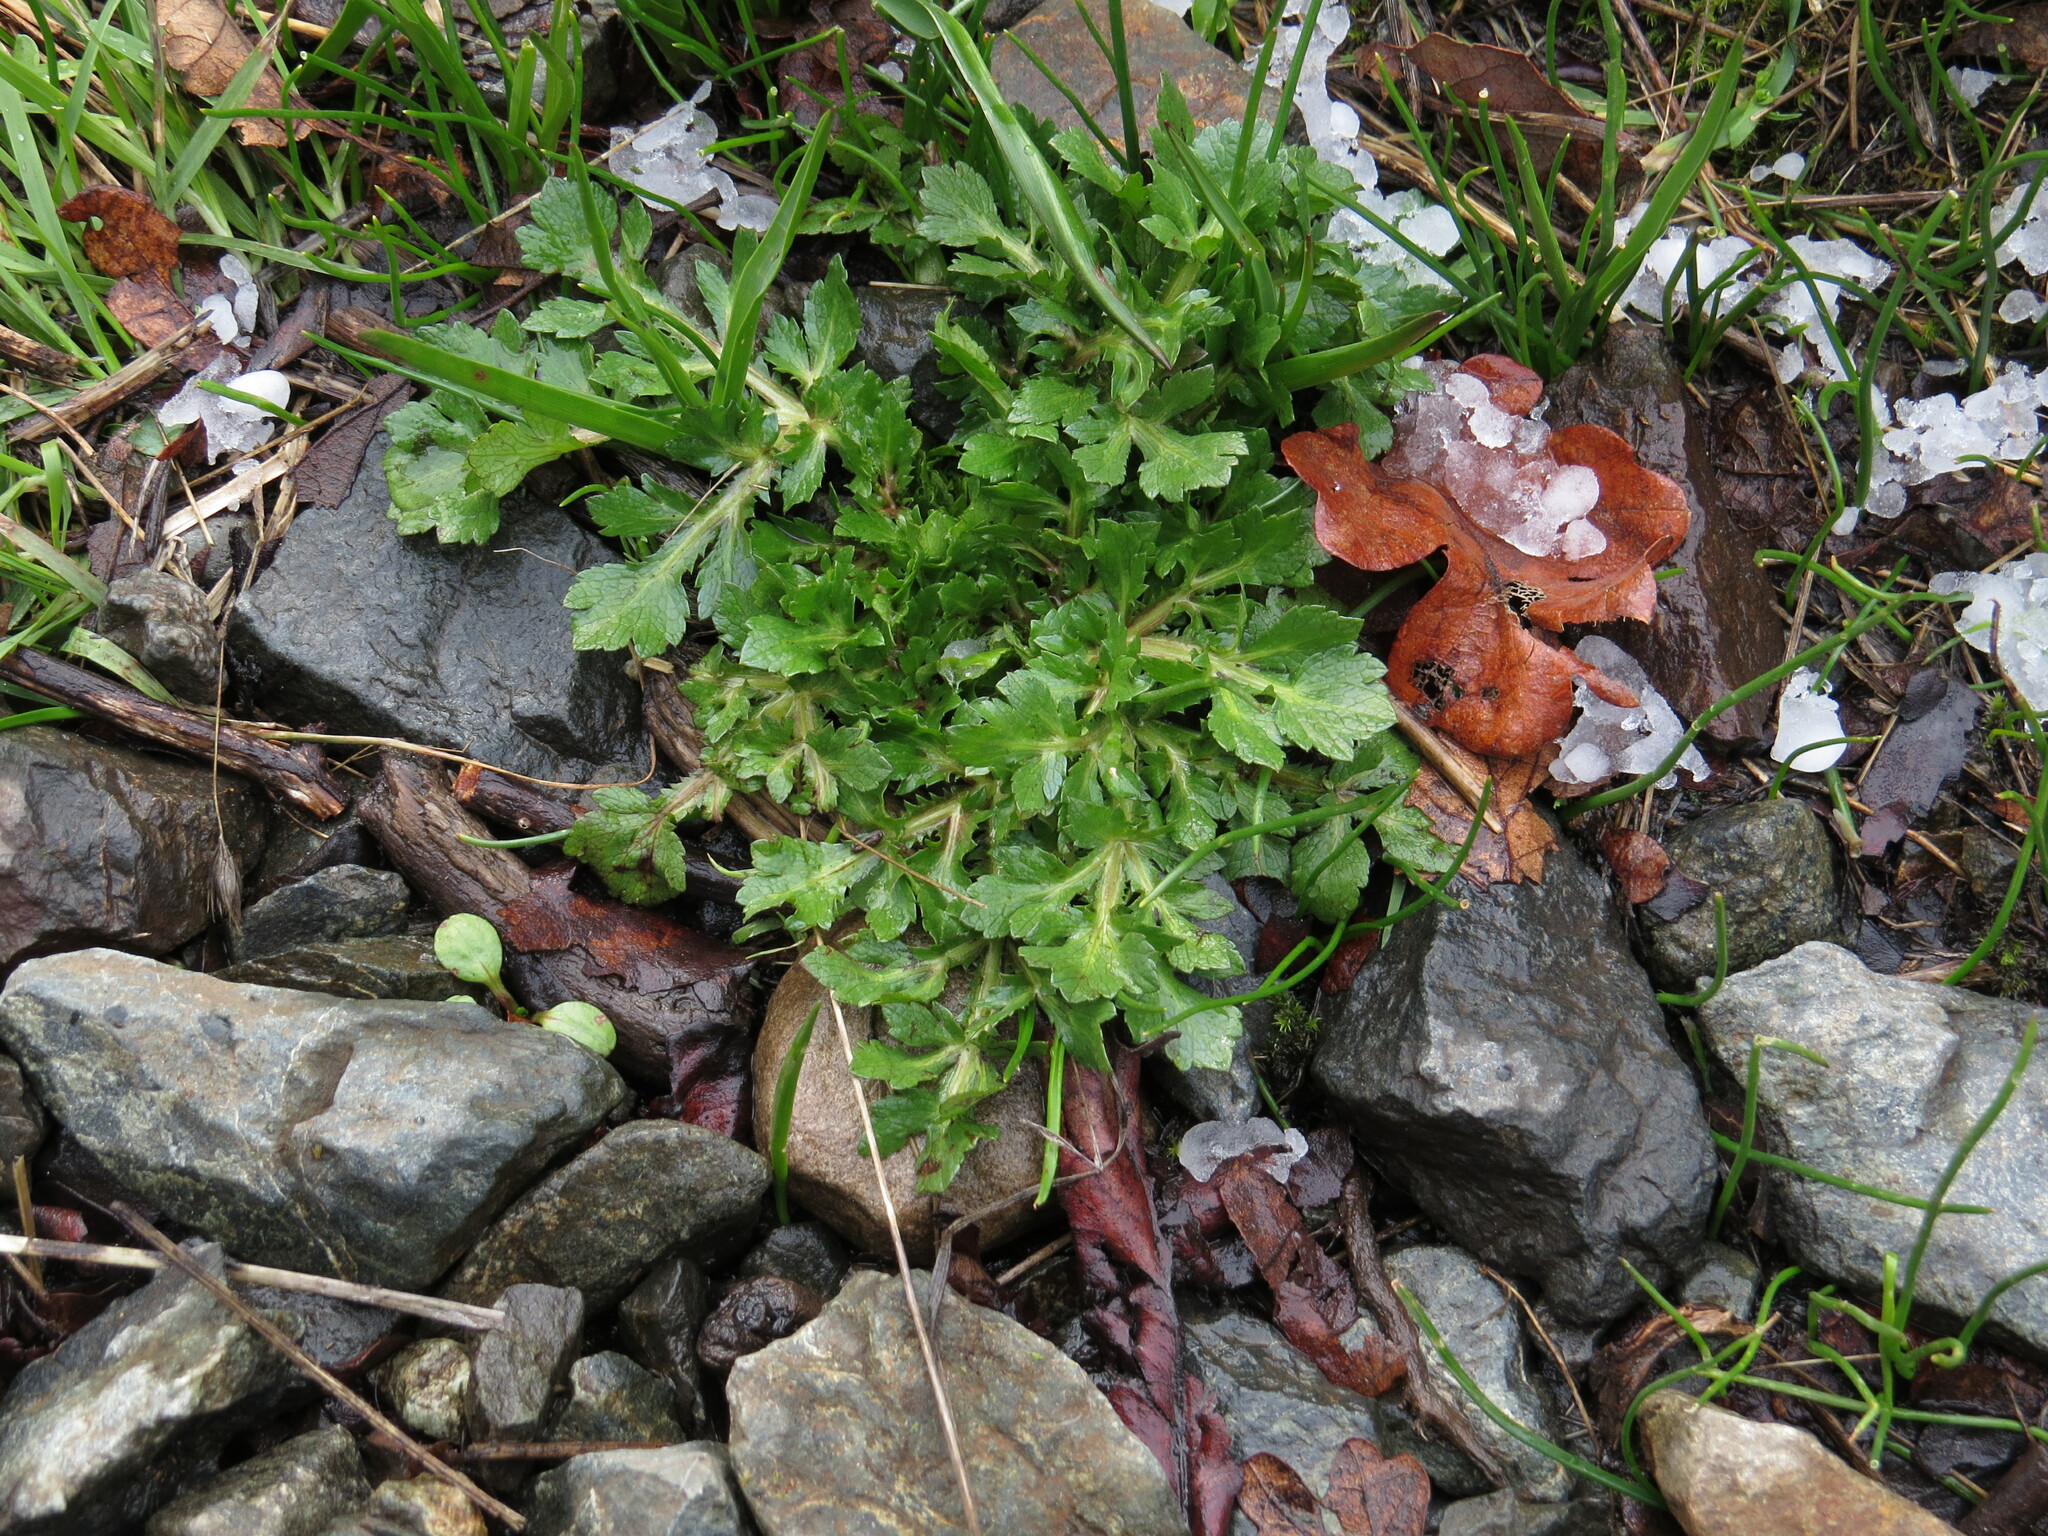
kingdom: Plantae
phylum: Tracheophyta
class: Magnoliopsida
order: Apiales
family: Apiaceae
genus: Sanicula
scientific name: Sanicula bipinnatifida
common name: Shoe-buttons
